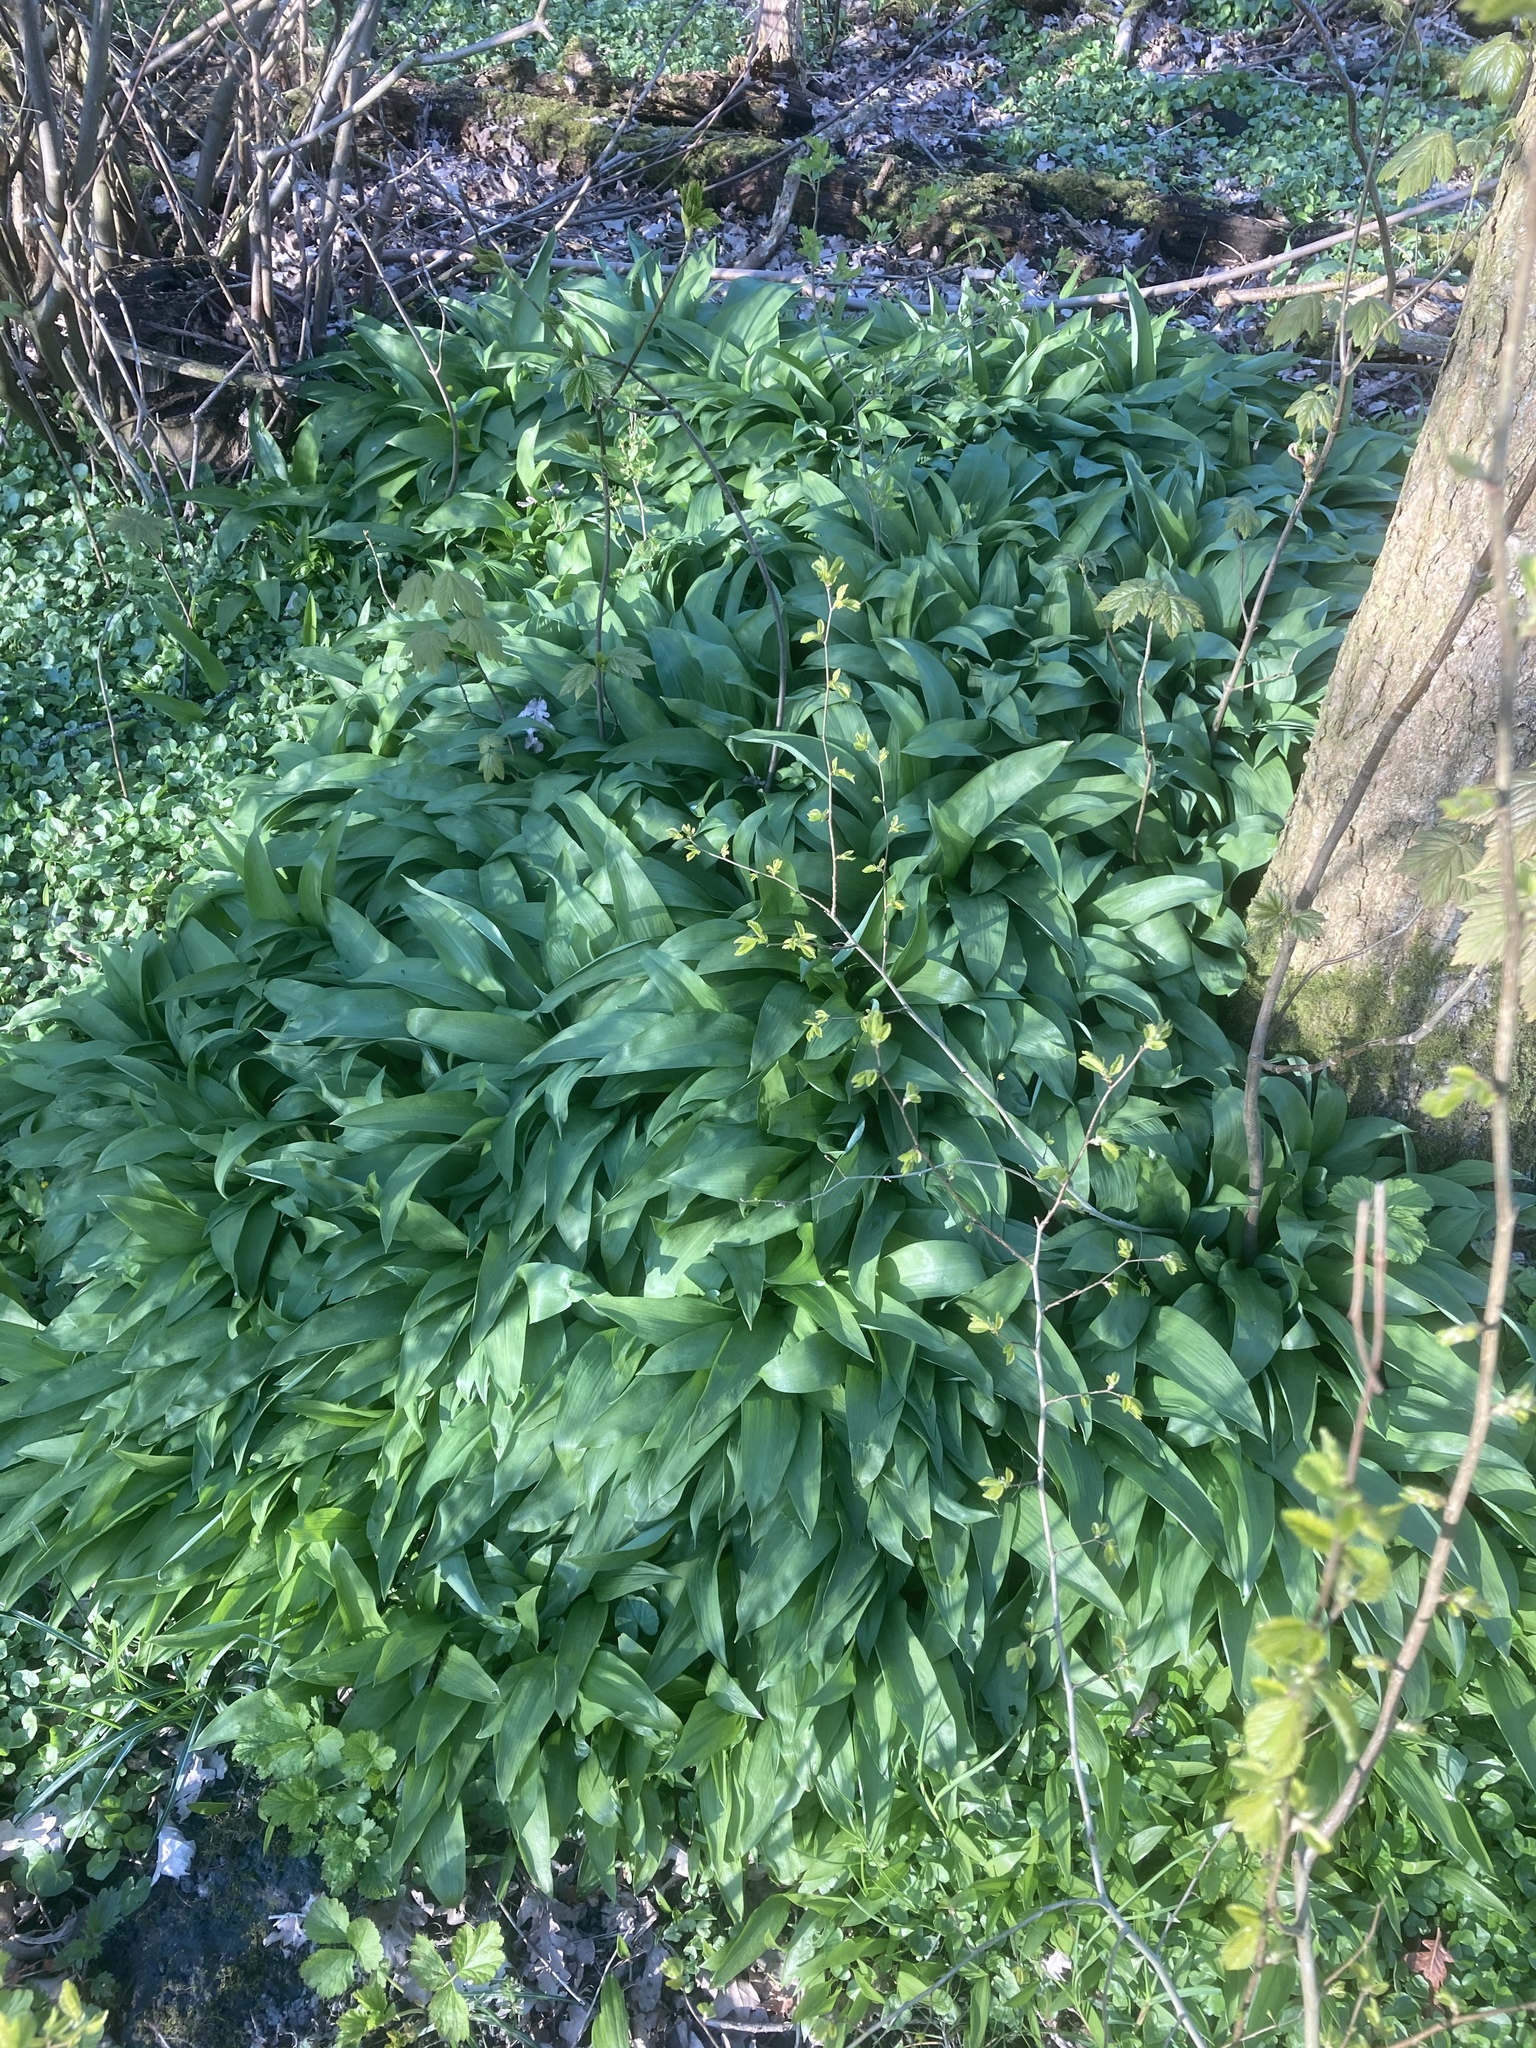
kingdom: Plantae
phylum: Tracheophyta
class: Liliopsida
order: Asparagales
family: Amaryllidaceae
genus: Allium
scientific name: Allium ursinum
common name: Ramsons
